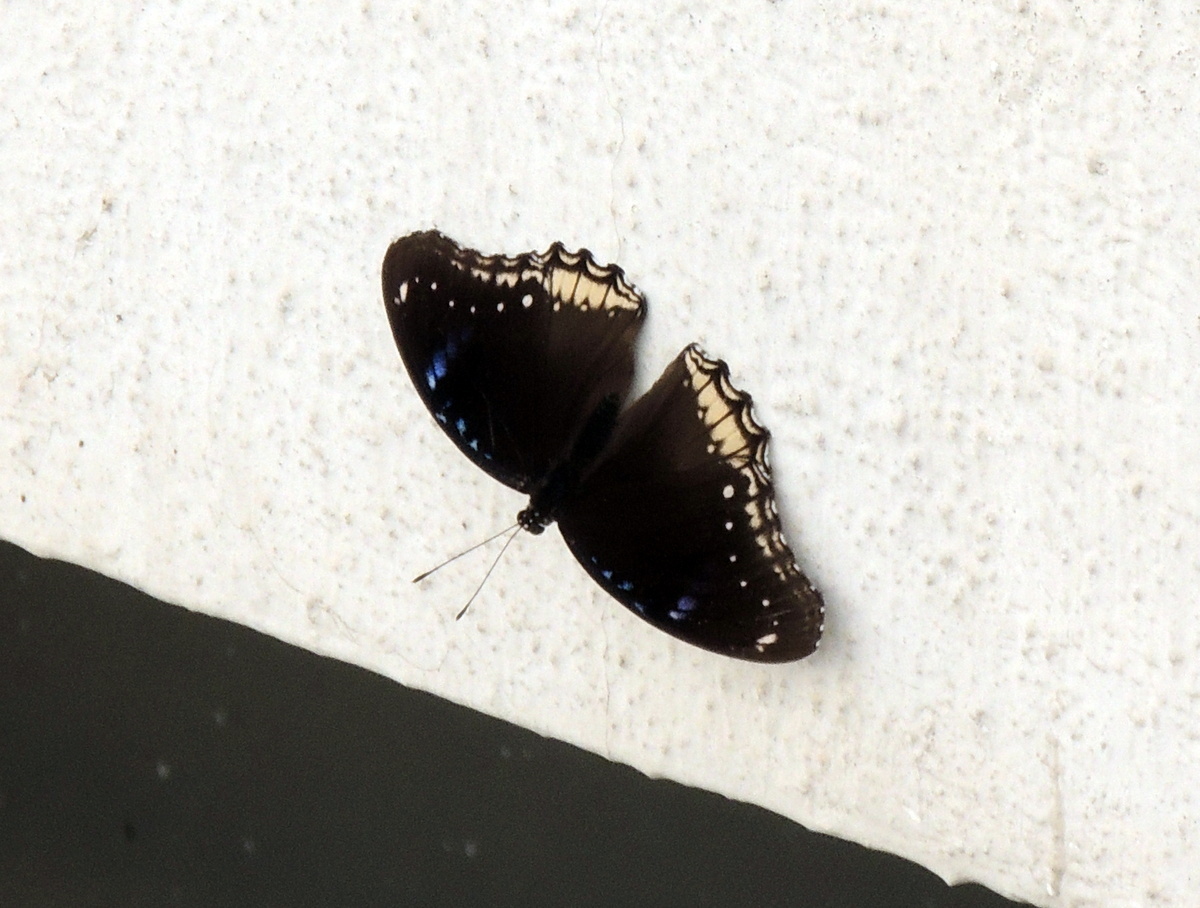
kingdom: Animalia
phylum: Arthropoda
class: Insecta
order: Lepidoptera
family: Nymphalidae
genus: Hypolimnas
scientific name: Hypolimnas bolina
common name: Great eggfly
